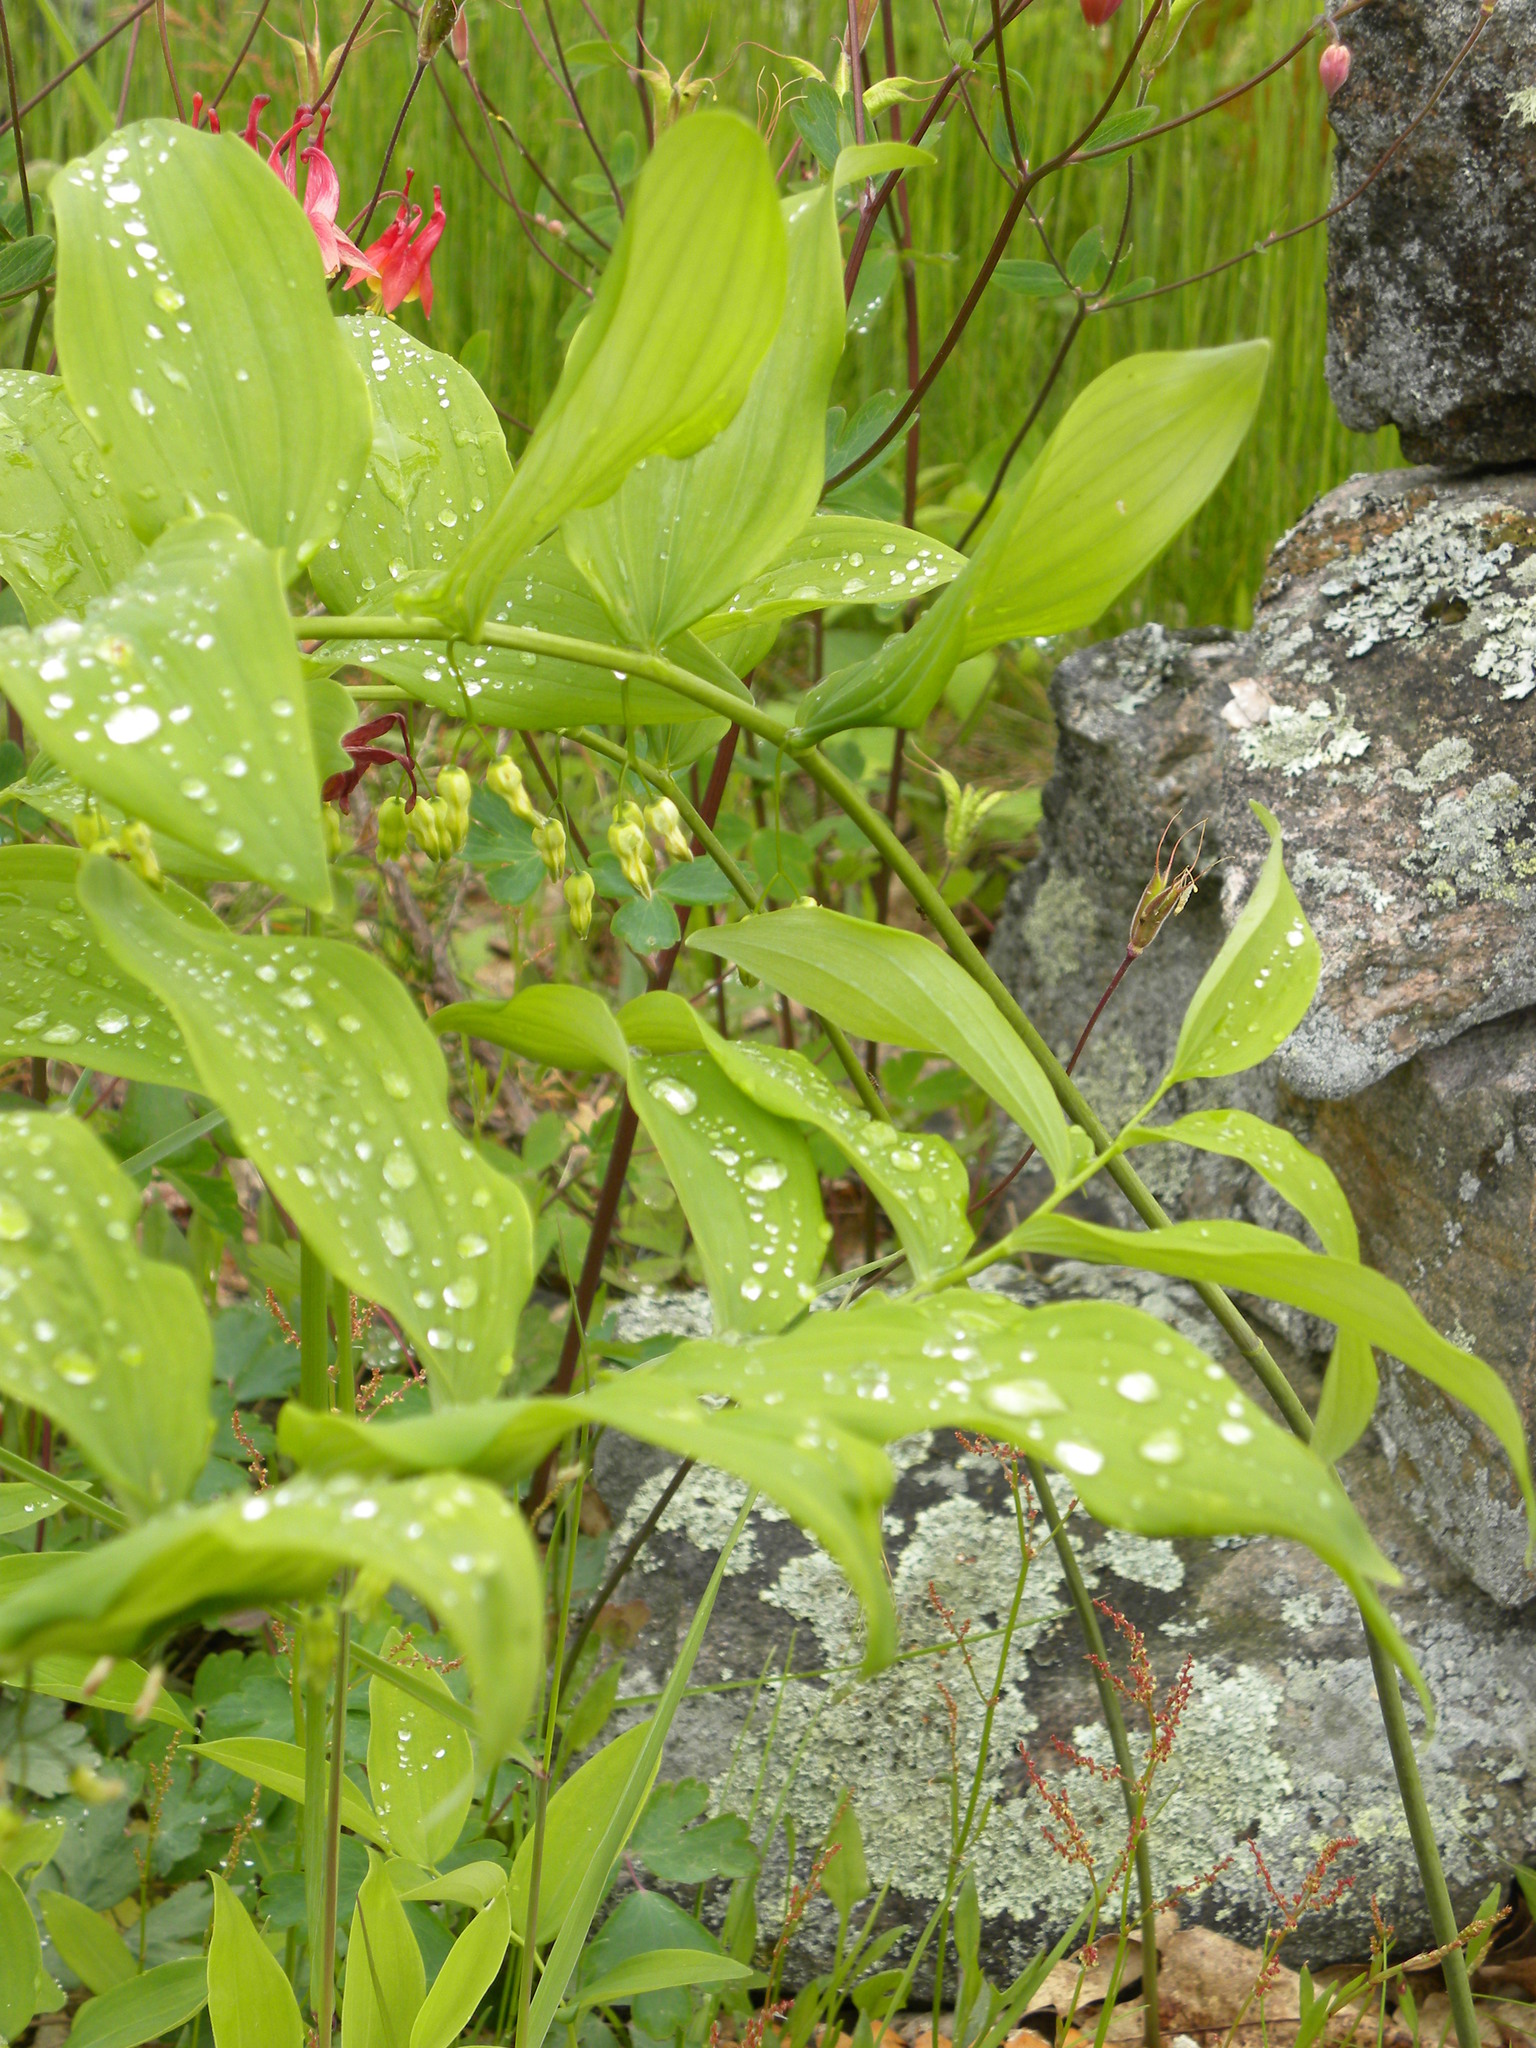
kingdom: Plantae
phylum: Tracheophyta
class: Liliopsida
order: Asparagales
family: Asparagaceae
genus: Polygonatum
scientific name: Polygonatum pubescens
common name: Downy solomon's seal
